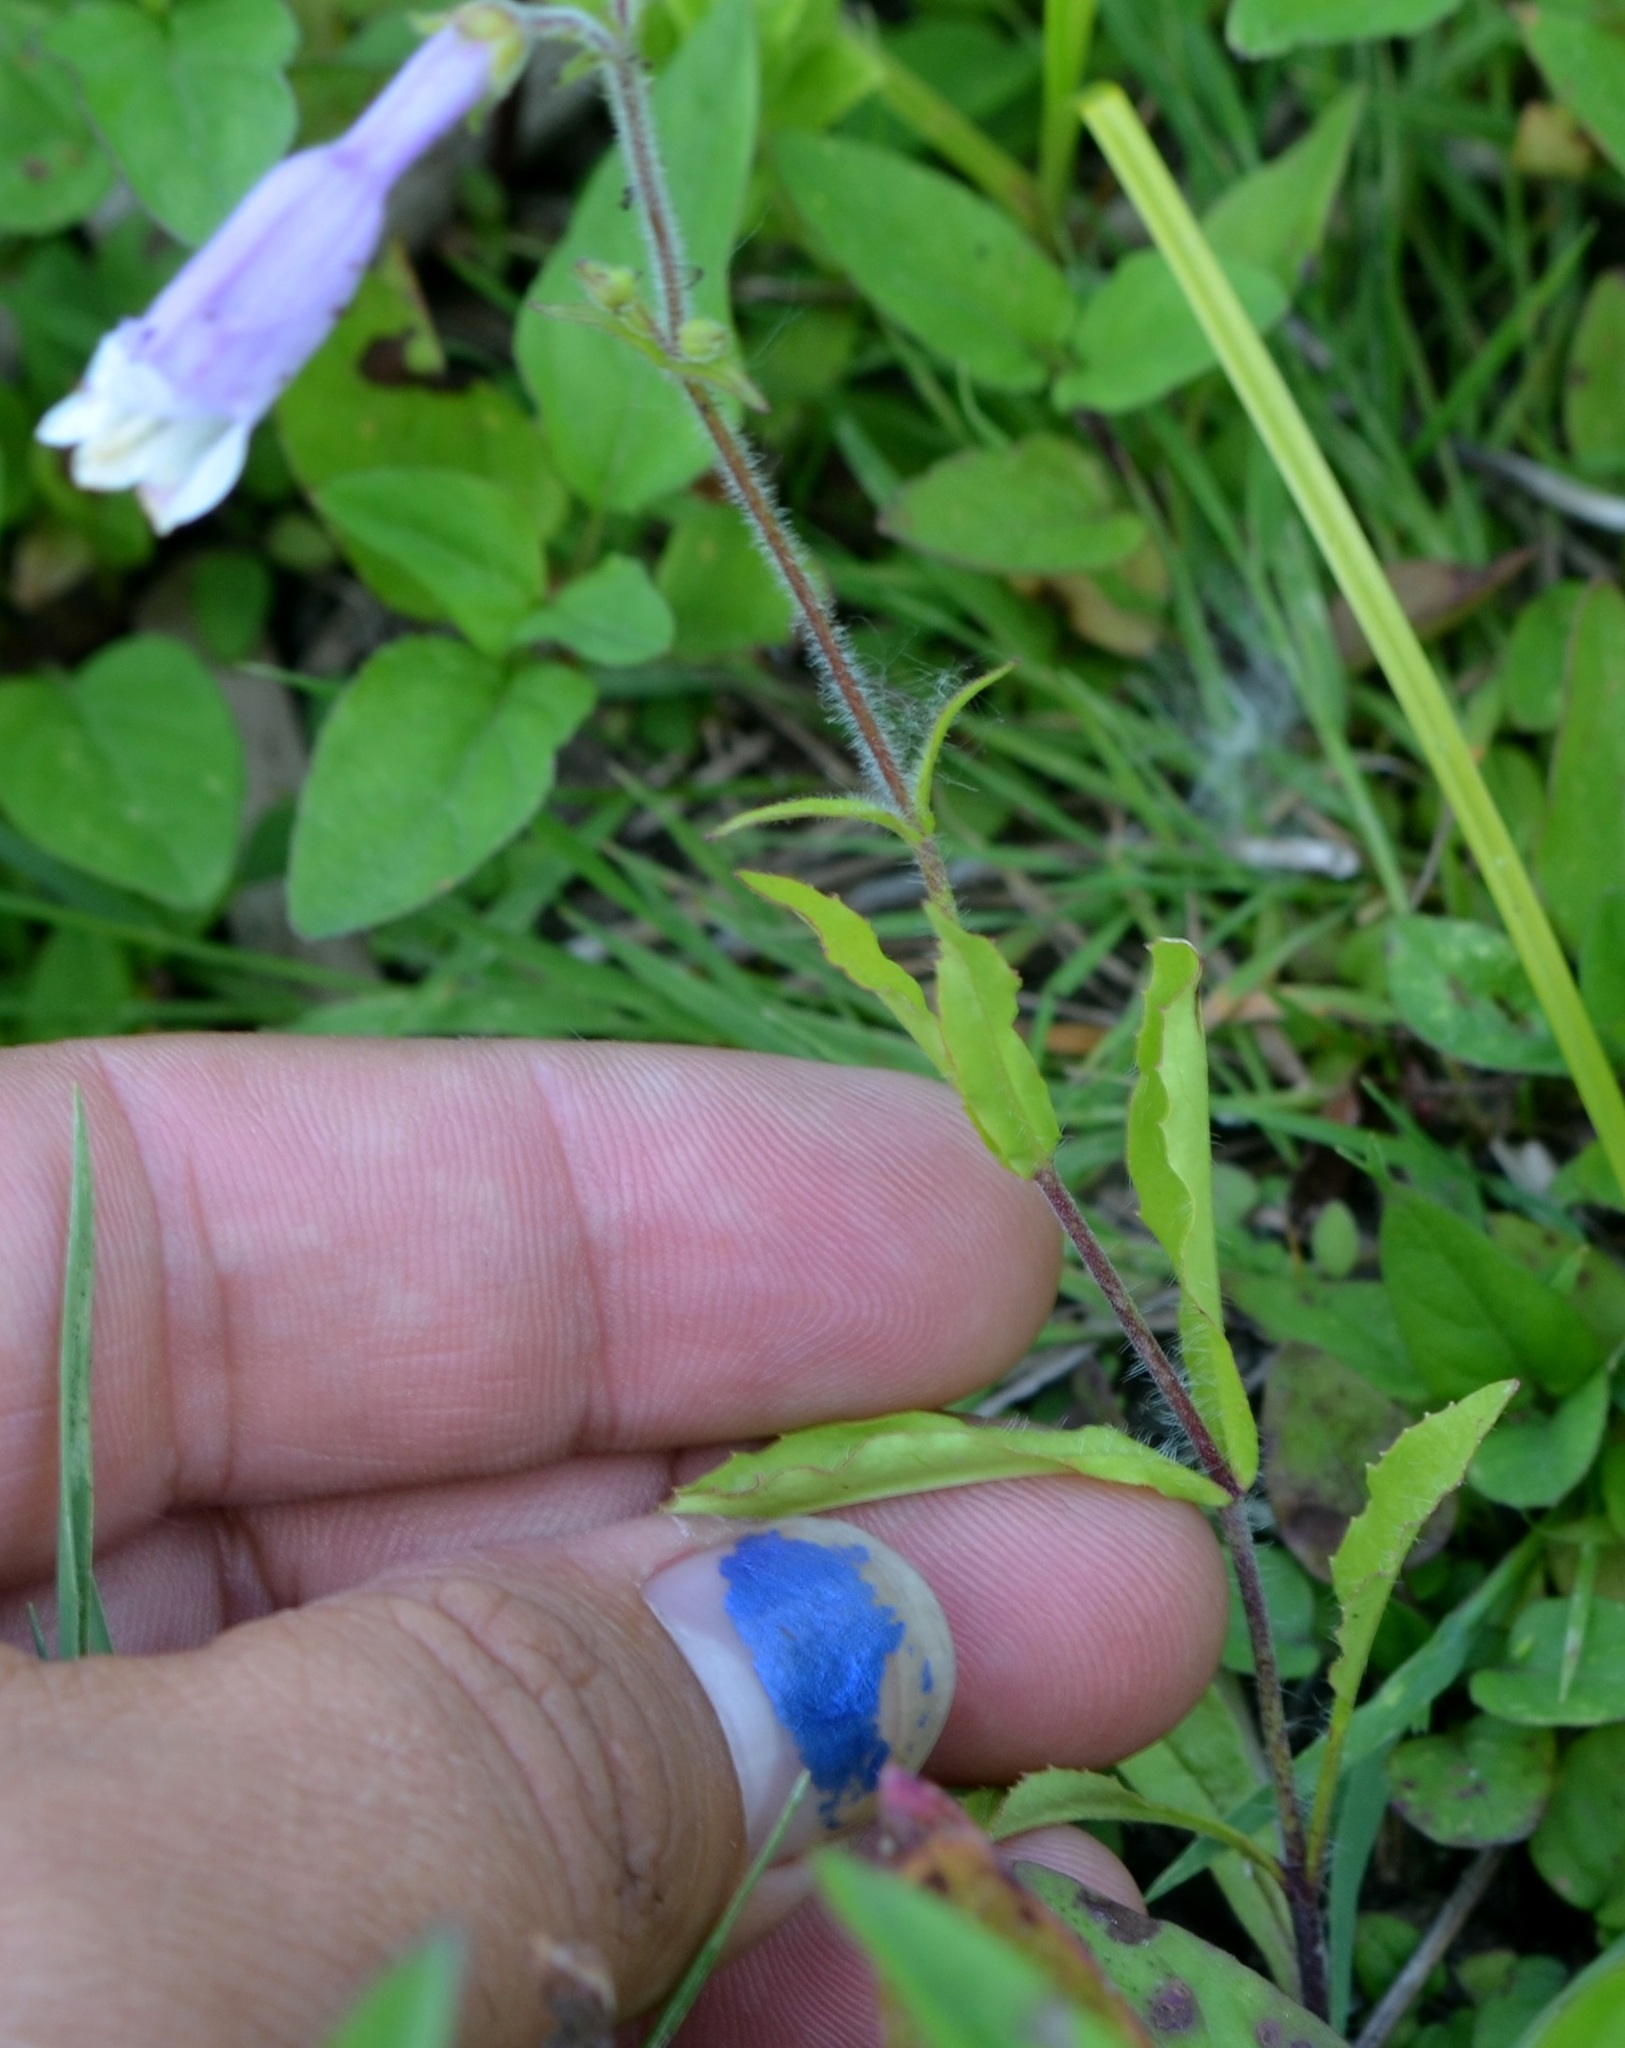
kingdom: Plantae
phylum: Tracheophyta
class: Magnoliopsida
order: Lamiales
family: Plantaginaceae
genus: Penstemon
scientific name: Penstemon hirsutus
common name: Hairy beardtongue
